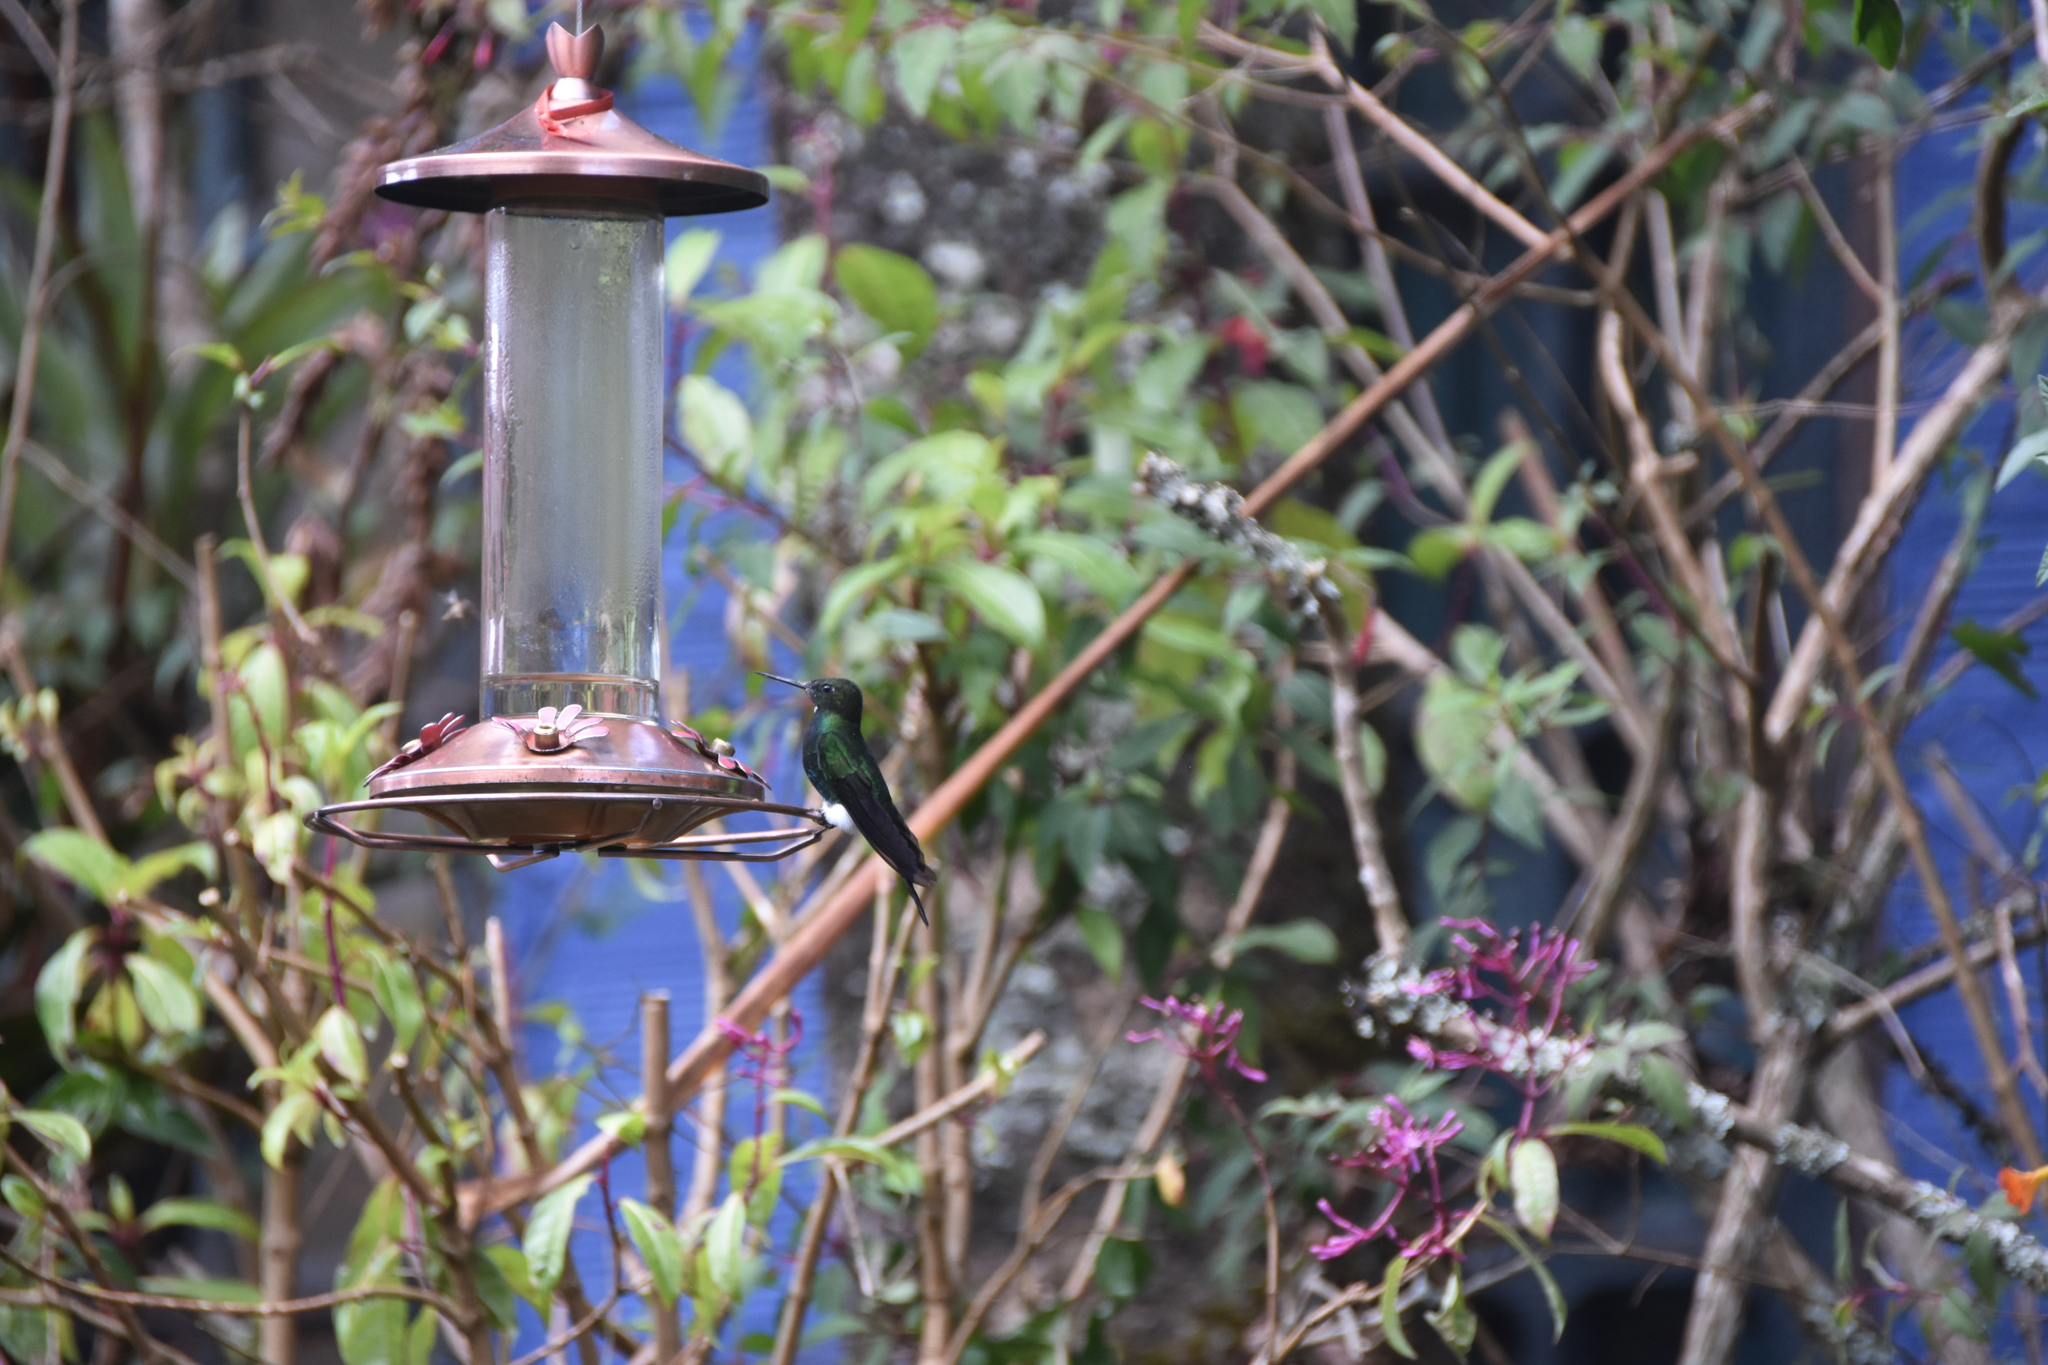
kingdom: Animalia
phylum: Chordata
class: Aves
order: Apodiformes
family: Trochilidae
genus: Eriocnemis
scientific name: Eriocnemis vestita
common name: Glowing puffleg
